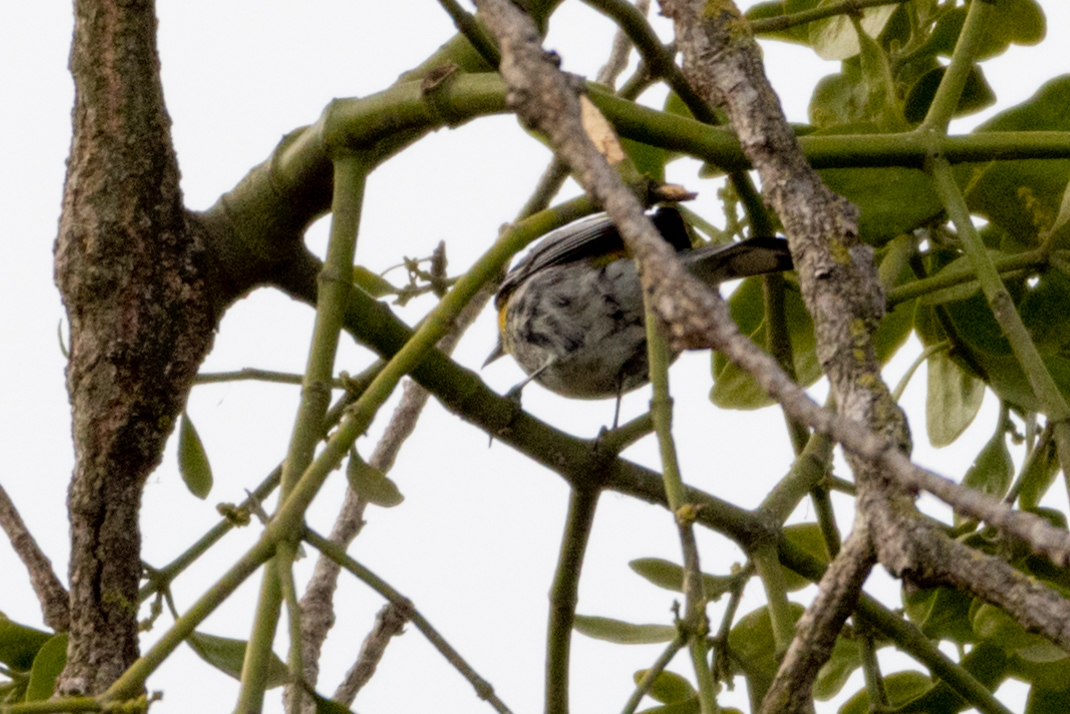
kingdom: Animalia
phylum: Chordata
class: Aves
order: Passeriformes
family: Parulidae
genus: Setophaga
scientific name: Setophaga coronata
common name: Myrtle warbler
